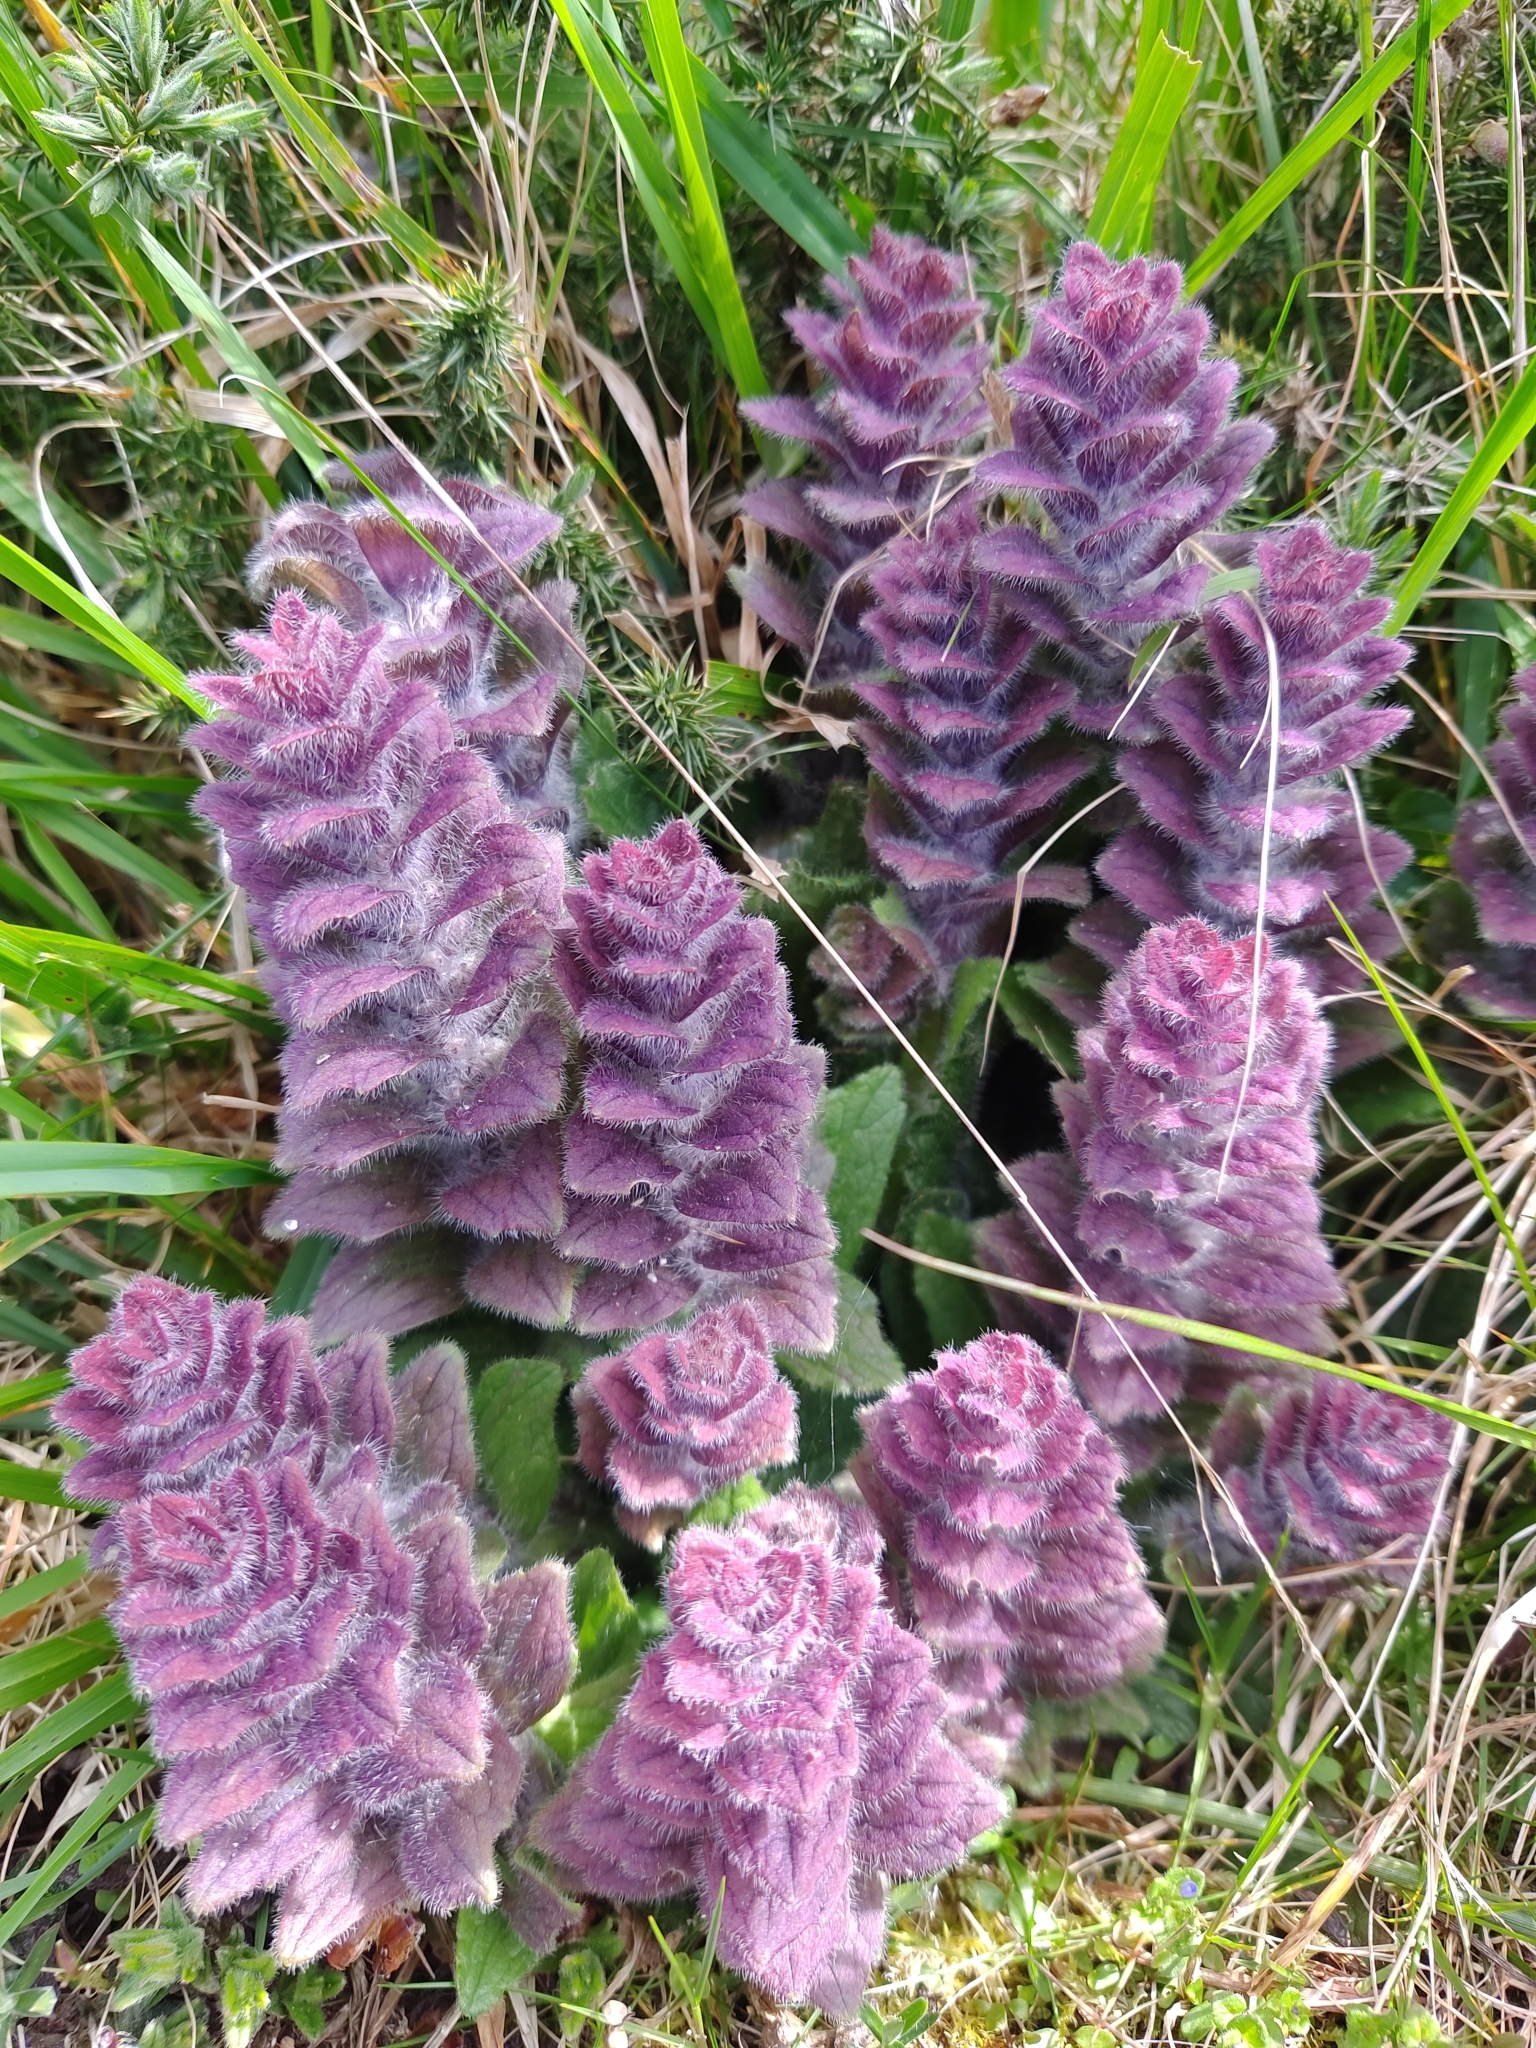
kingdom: Plantae
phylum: Tracheophyta
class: Magnoliopsida
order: Lamiales
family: Lamiaceae
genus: Ajuga
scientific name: Ajuga pyramidalis
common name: Pyramid bugle
